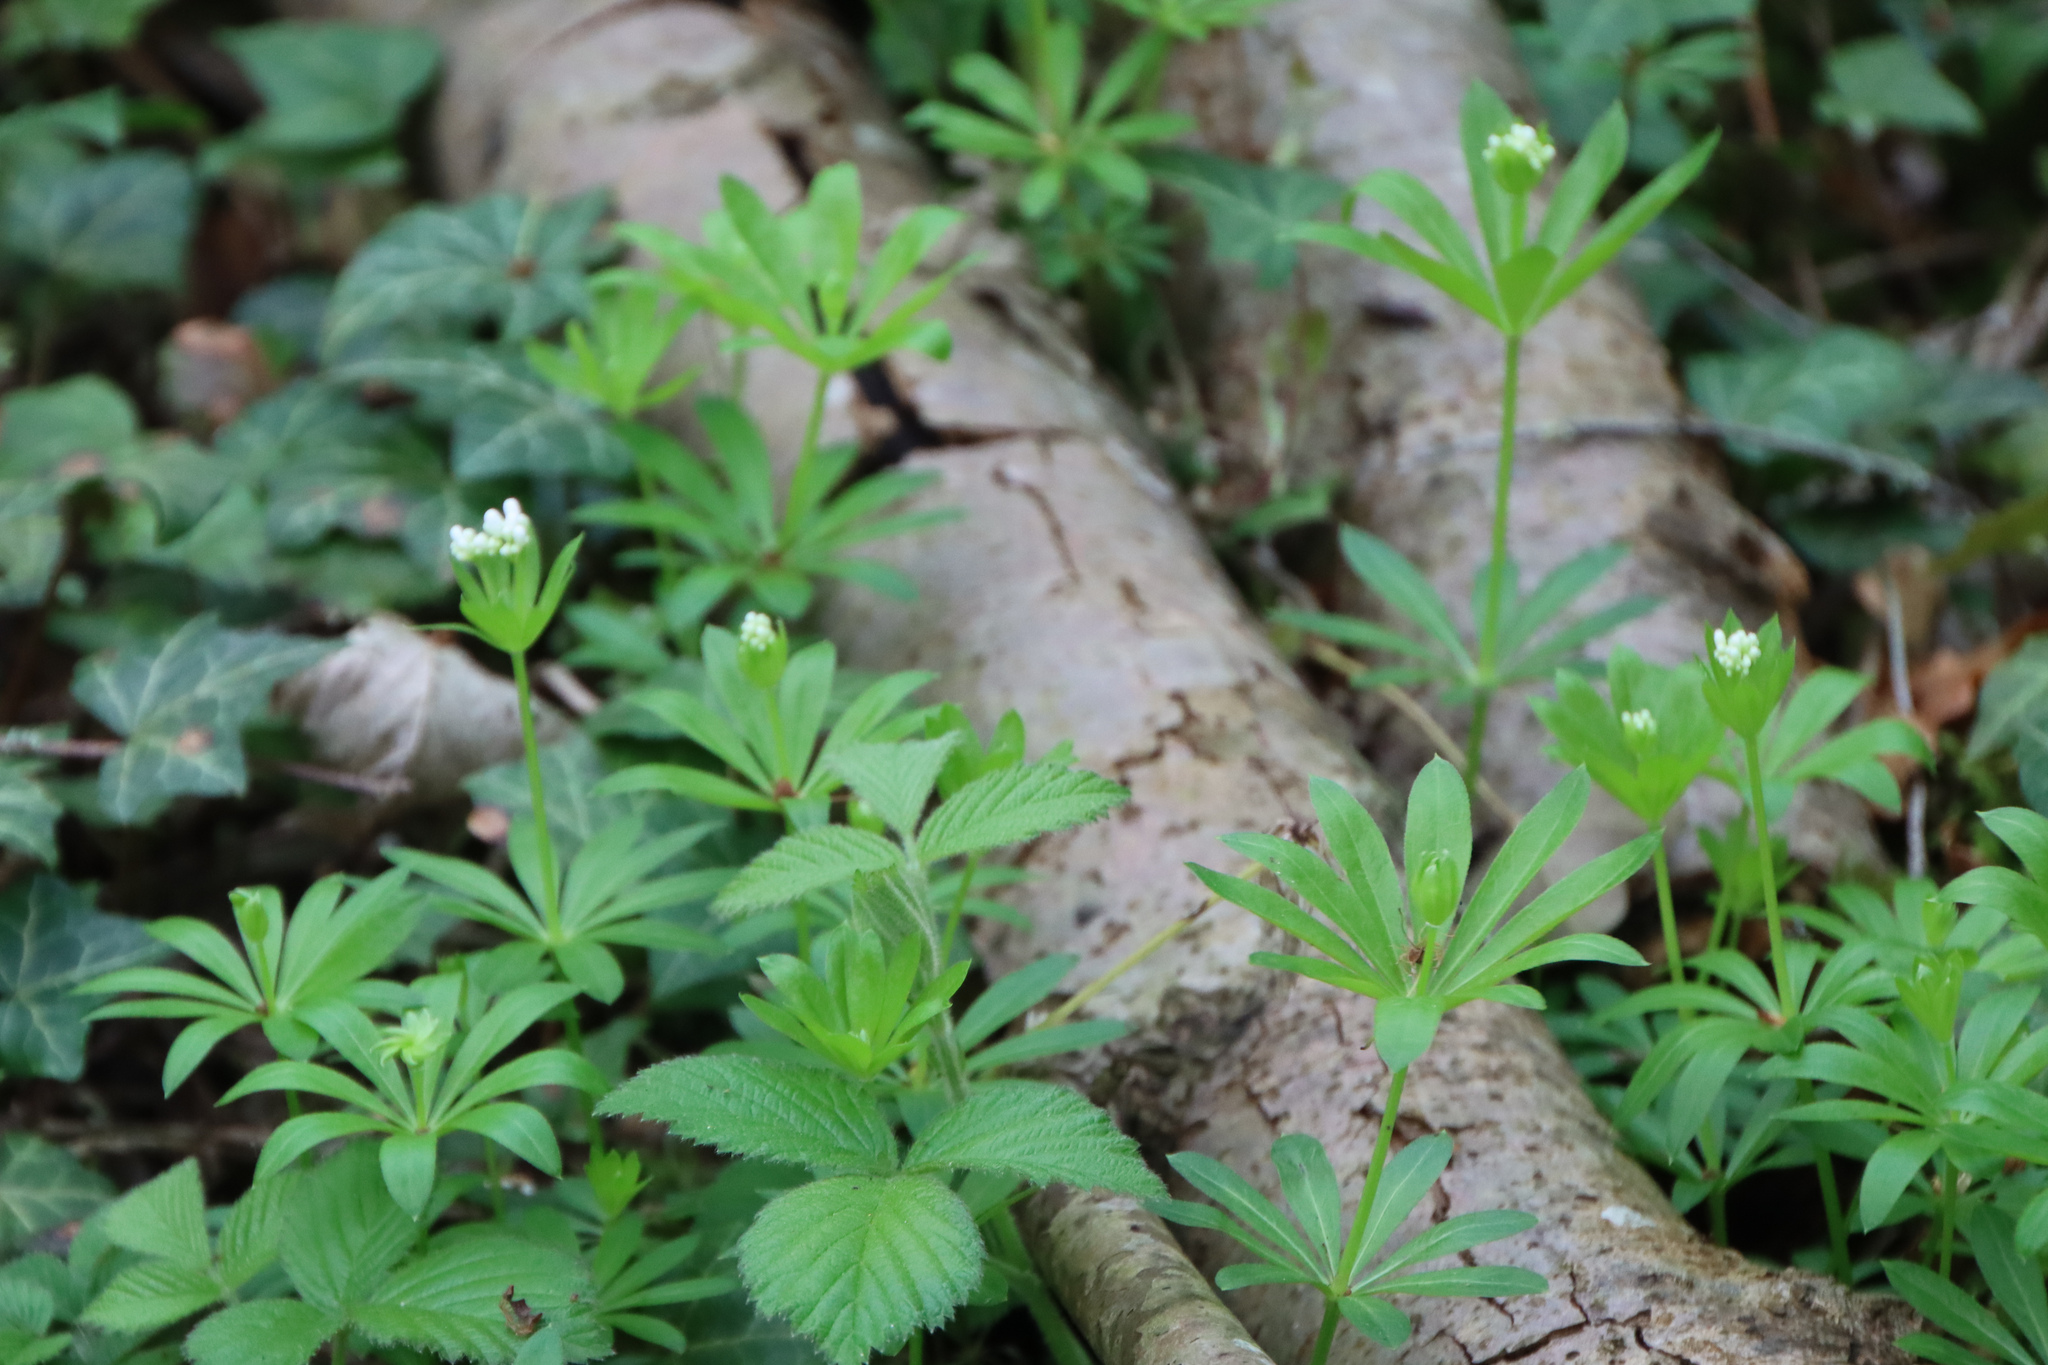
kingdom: Plantae
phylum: Tracheophyta
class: Magnoliopsida
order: Gentianales
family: Rubiaceae
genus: Galium
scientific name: Galium odoratum
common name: Sweet woodruff
